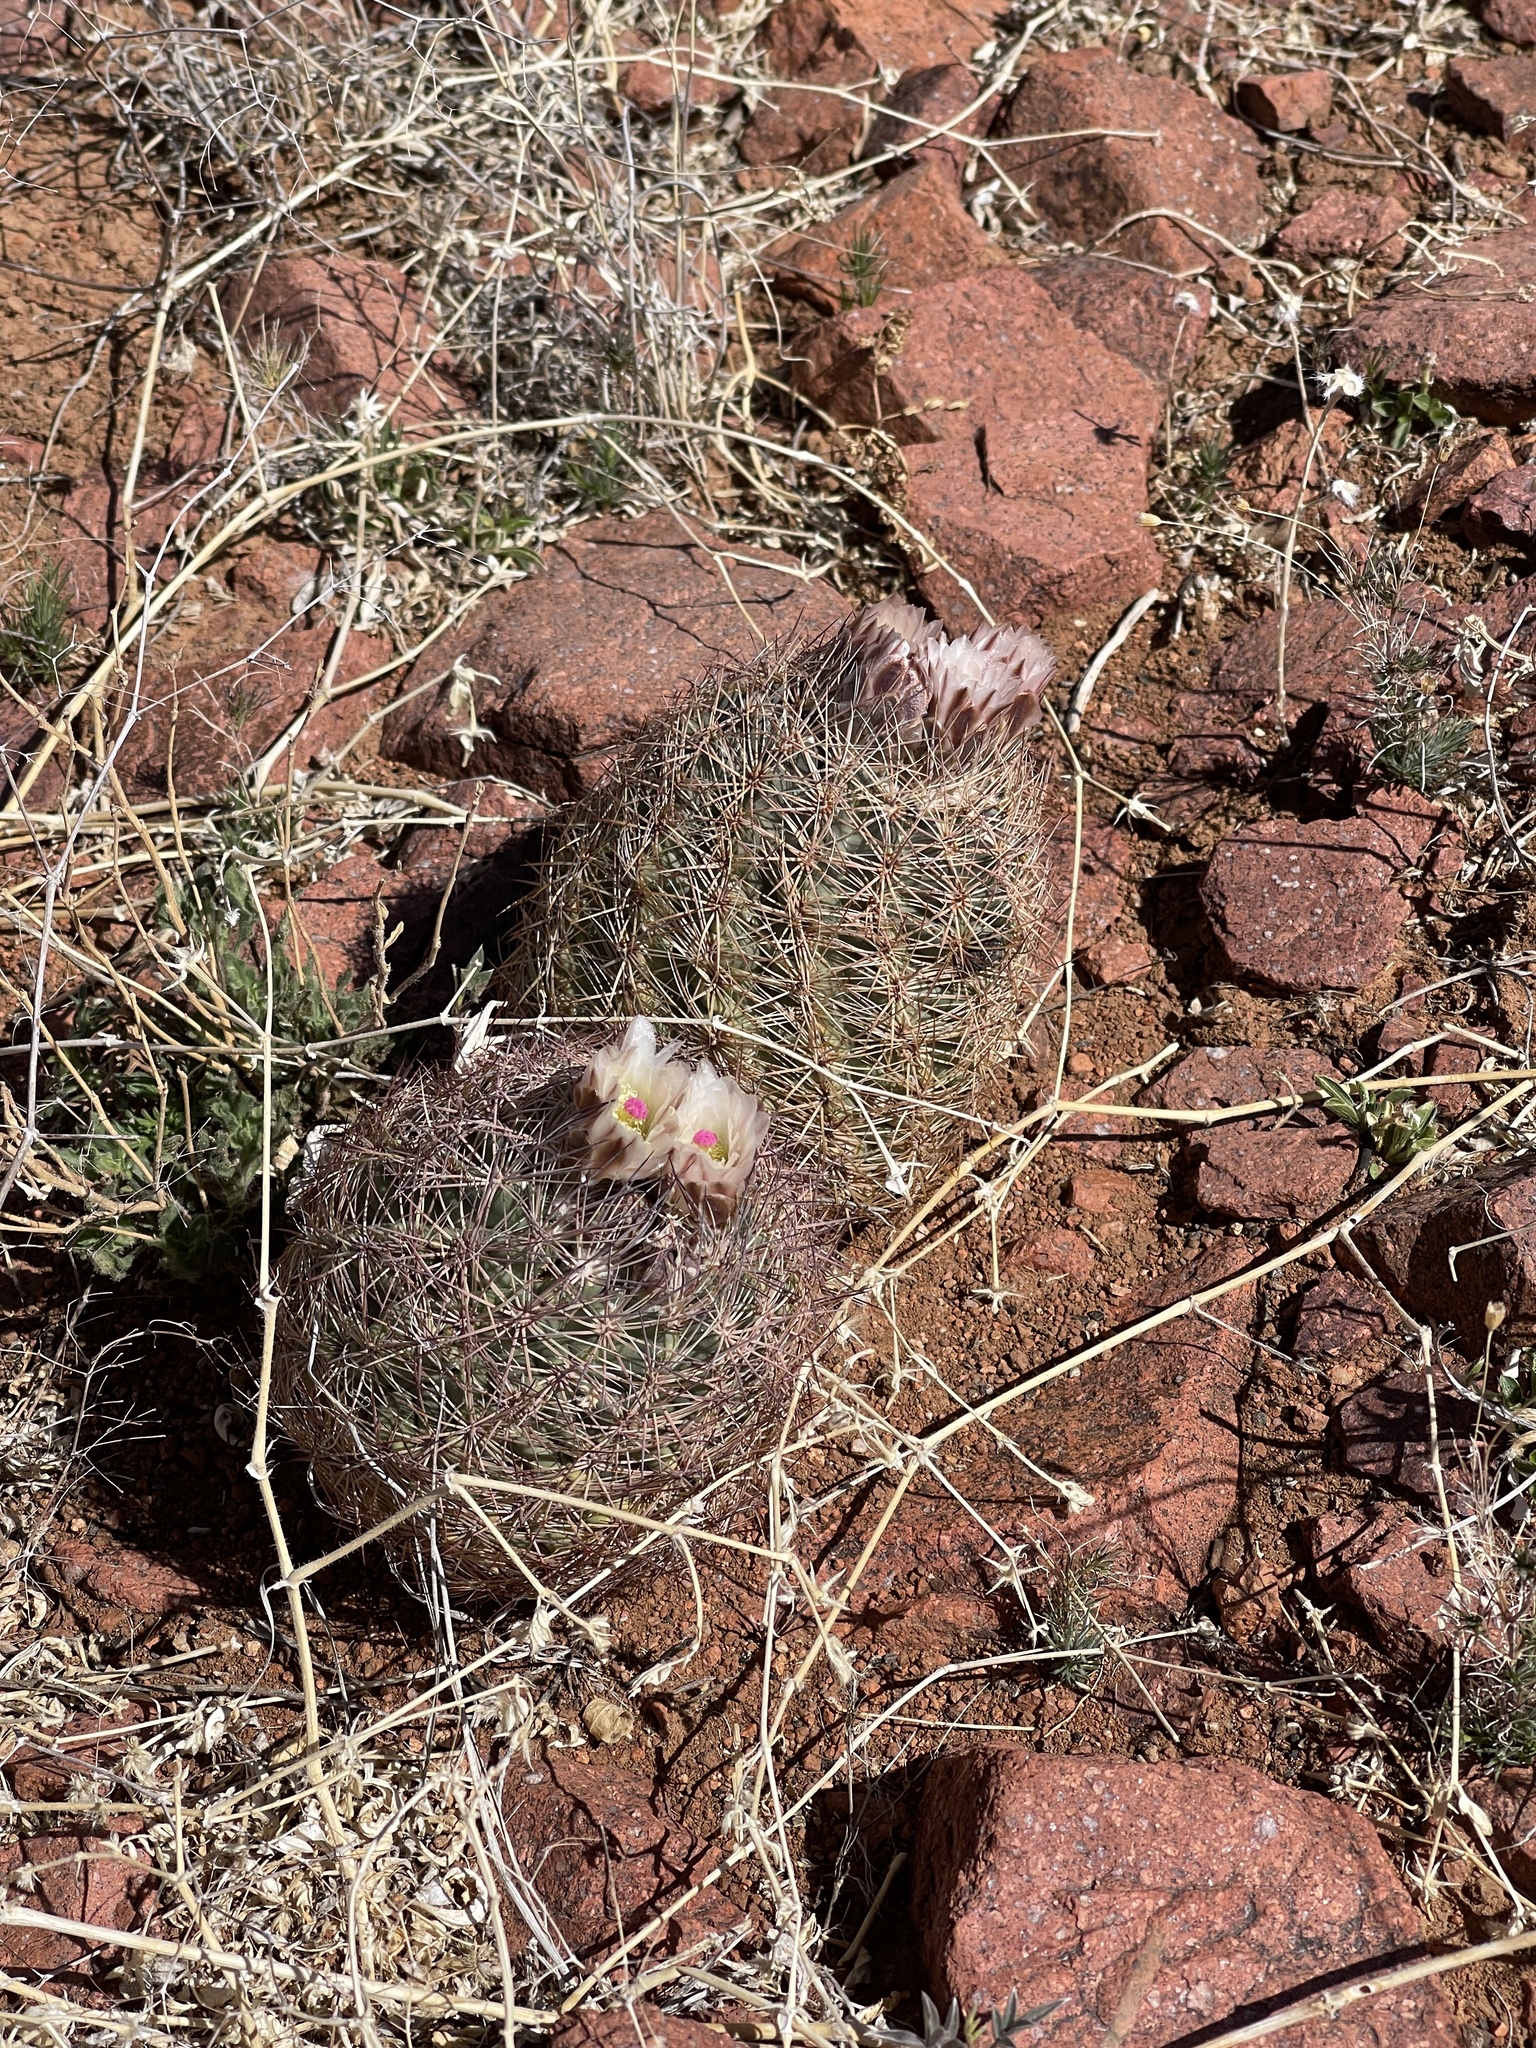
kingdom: Plantae
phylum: Tracheophyta
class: Magnoliopsida
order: Caryophyllales
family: Cactaceae
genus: Sclerocactus
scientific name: Sclerocactus intertextus
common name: White fish-hook cactus
